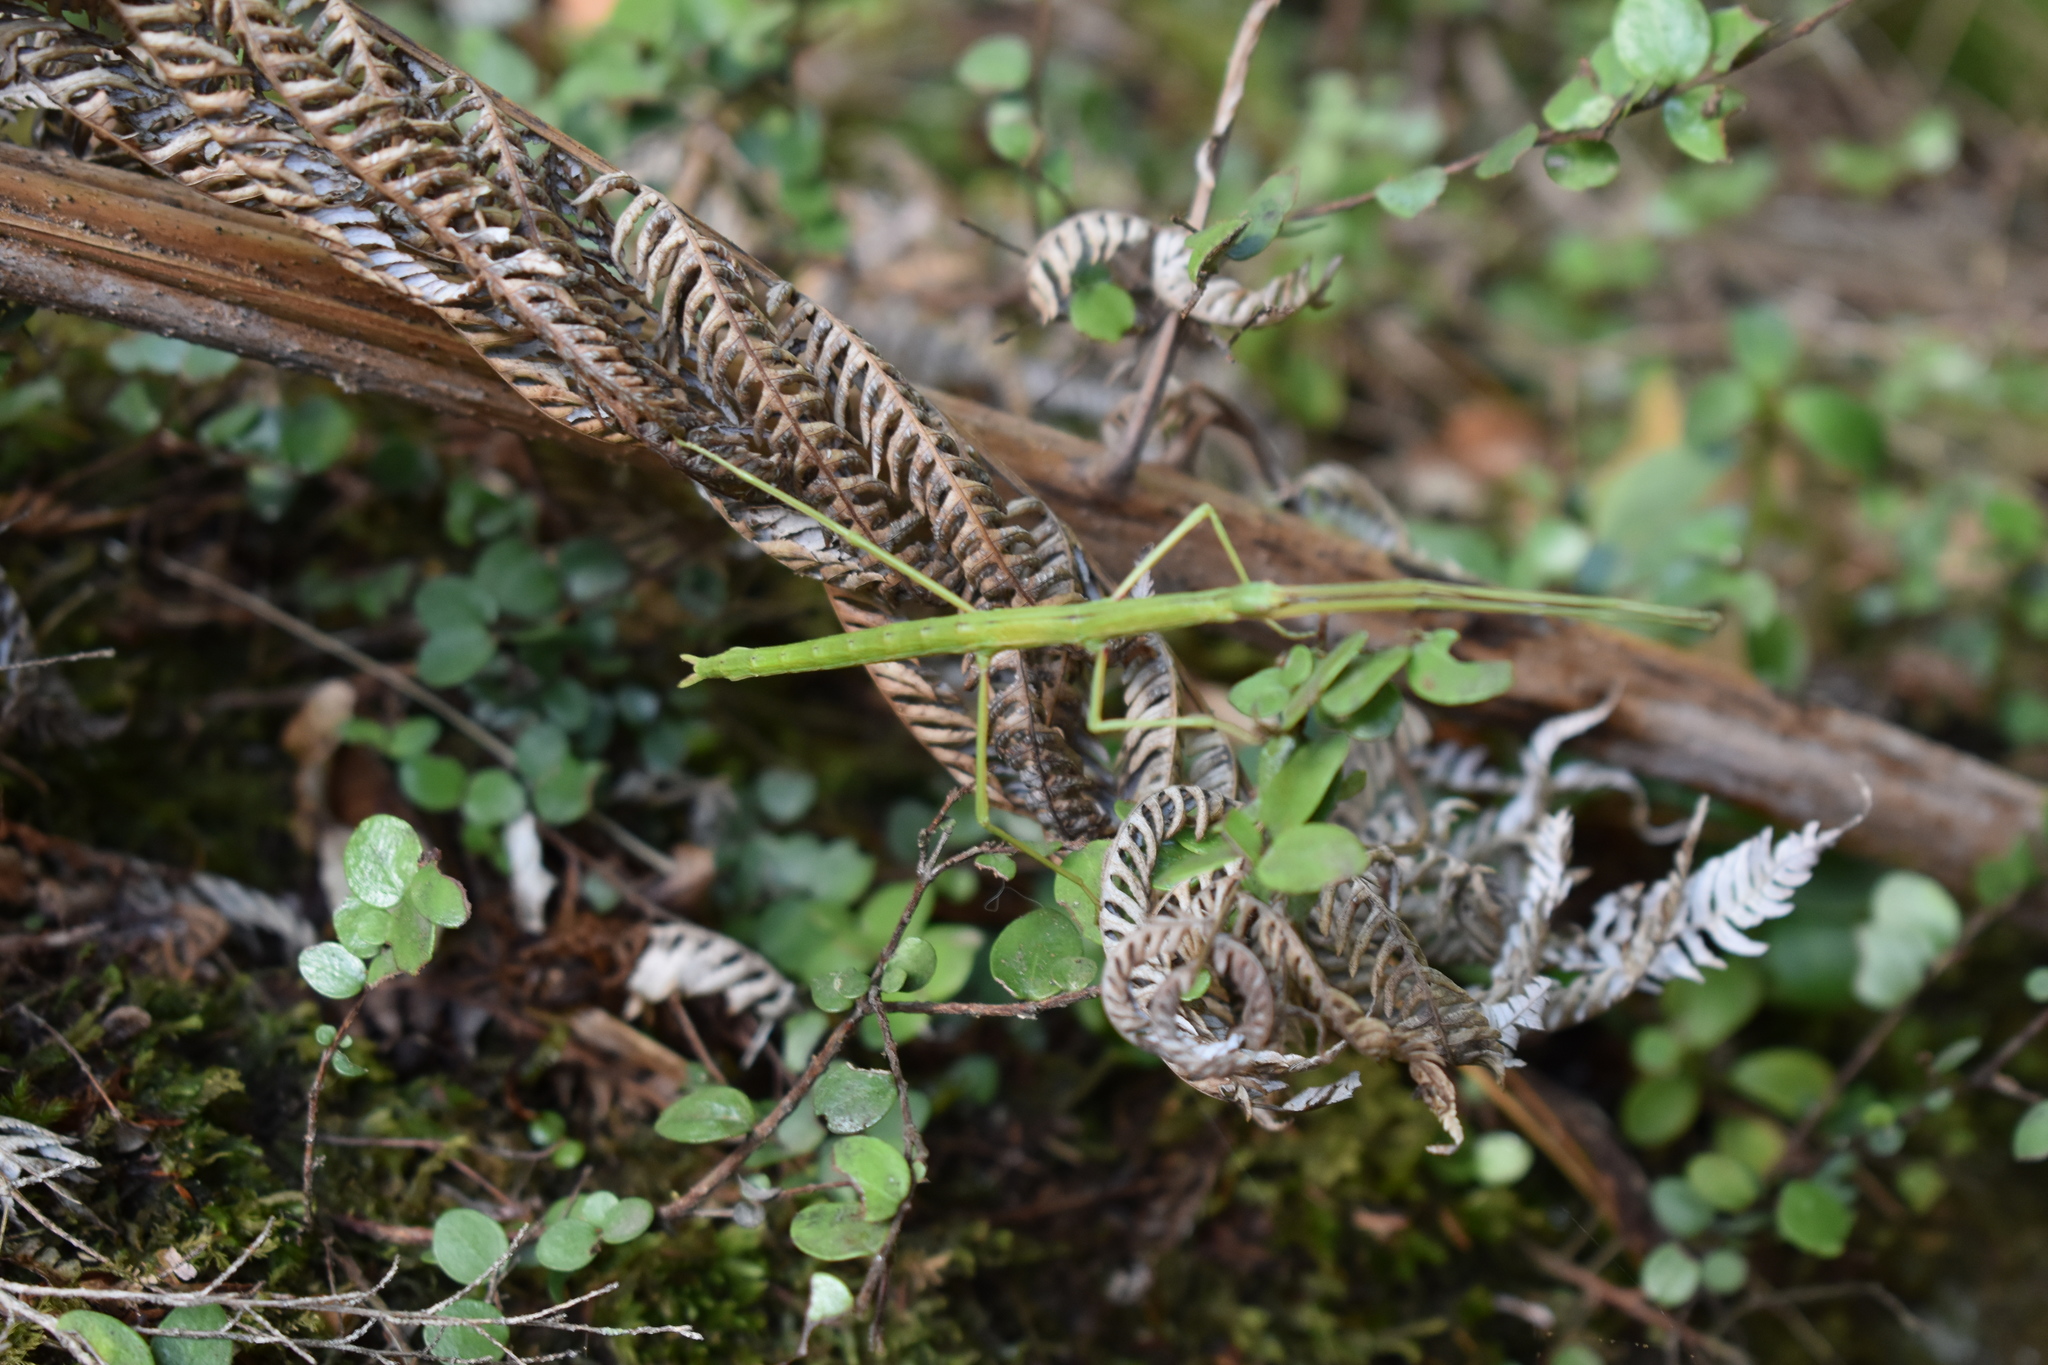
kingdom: Animalia
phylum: Arthropoda
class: Insecta
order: Phasmida
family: Phasmatidae
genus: Clitarchus
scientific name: Clitarchus hookeri
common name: Smooth stick insect
